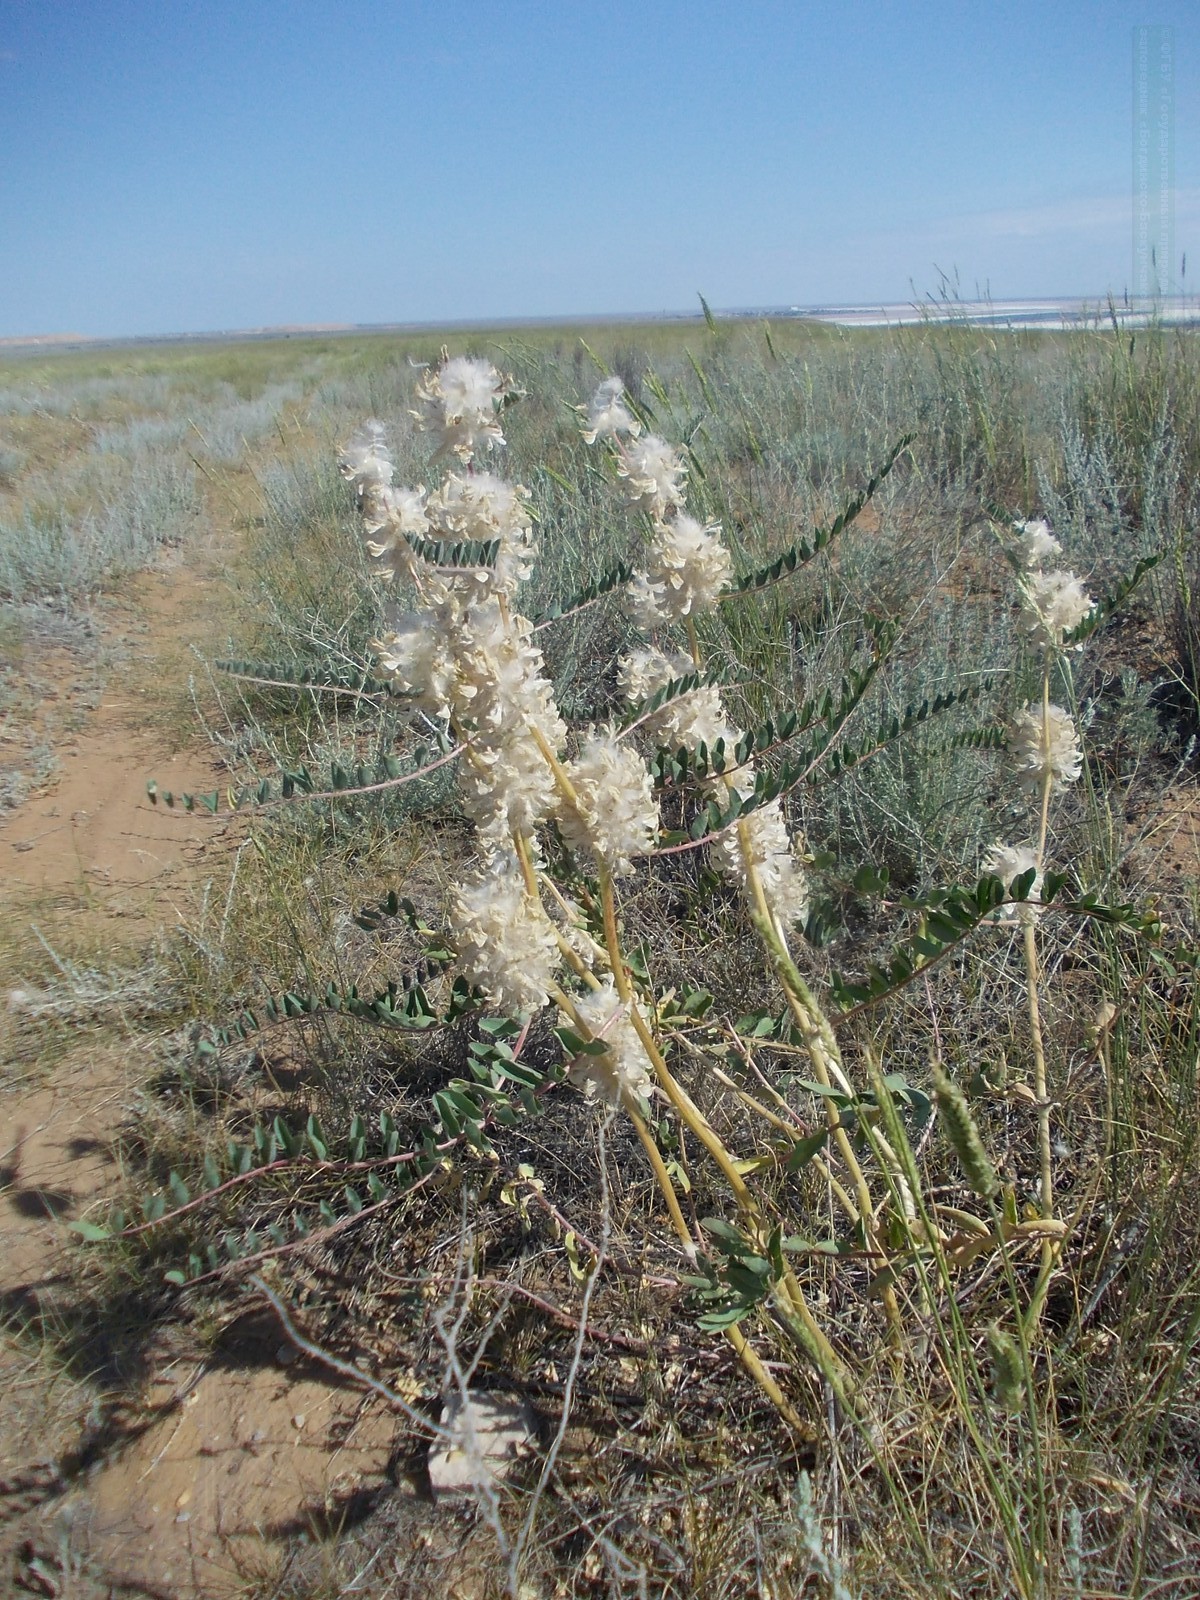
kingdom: Plantae
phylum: Tracheophyta
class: Magnoliopsida
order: Fabales
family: Fabaceae
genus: Astragalus
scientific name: Astragalus vulpinus
